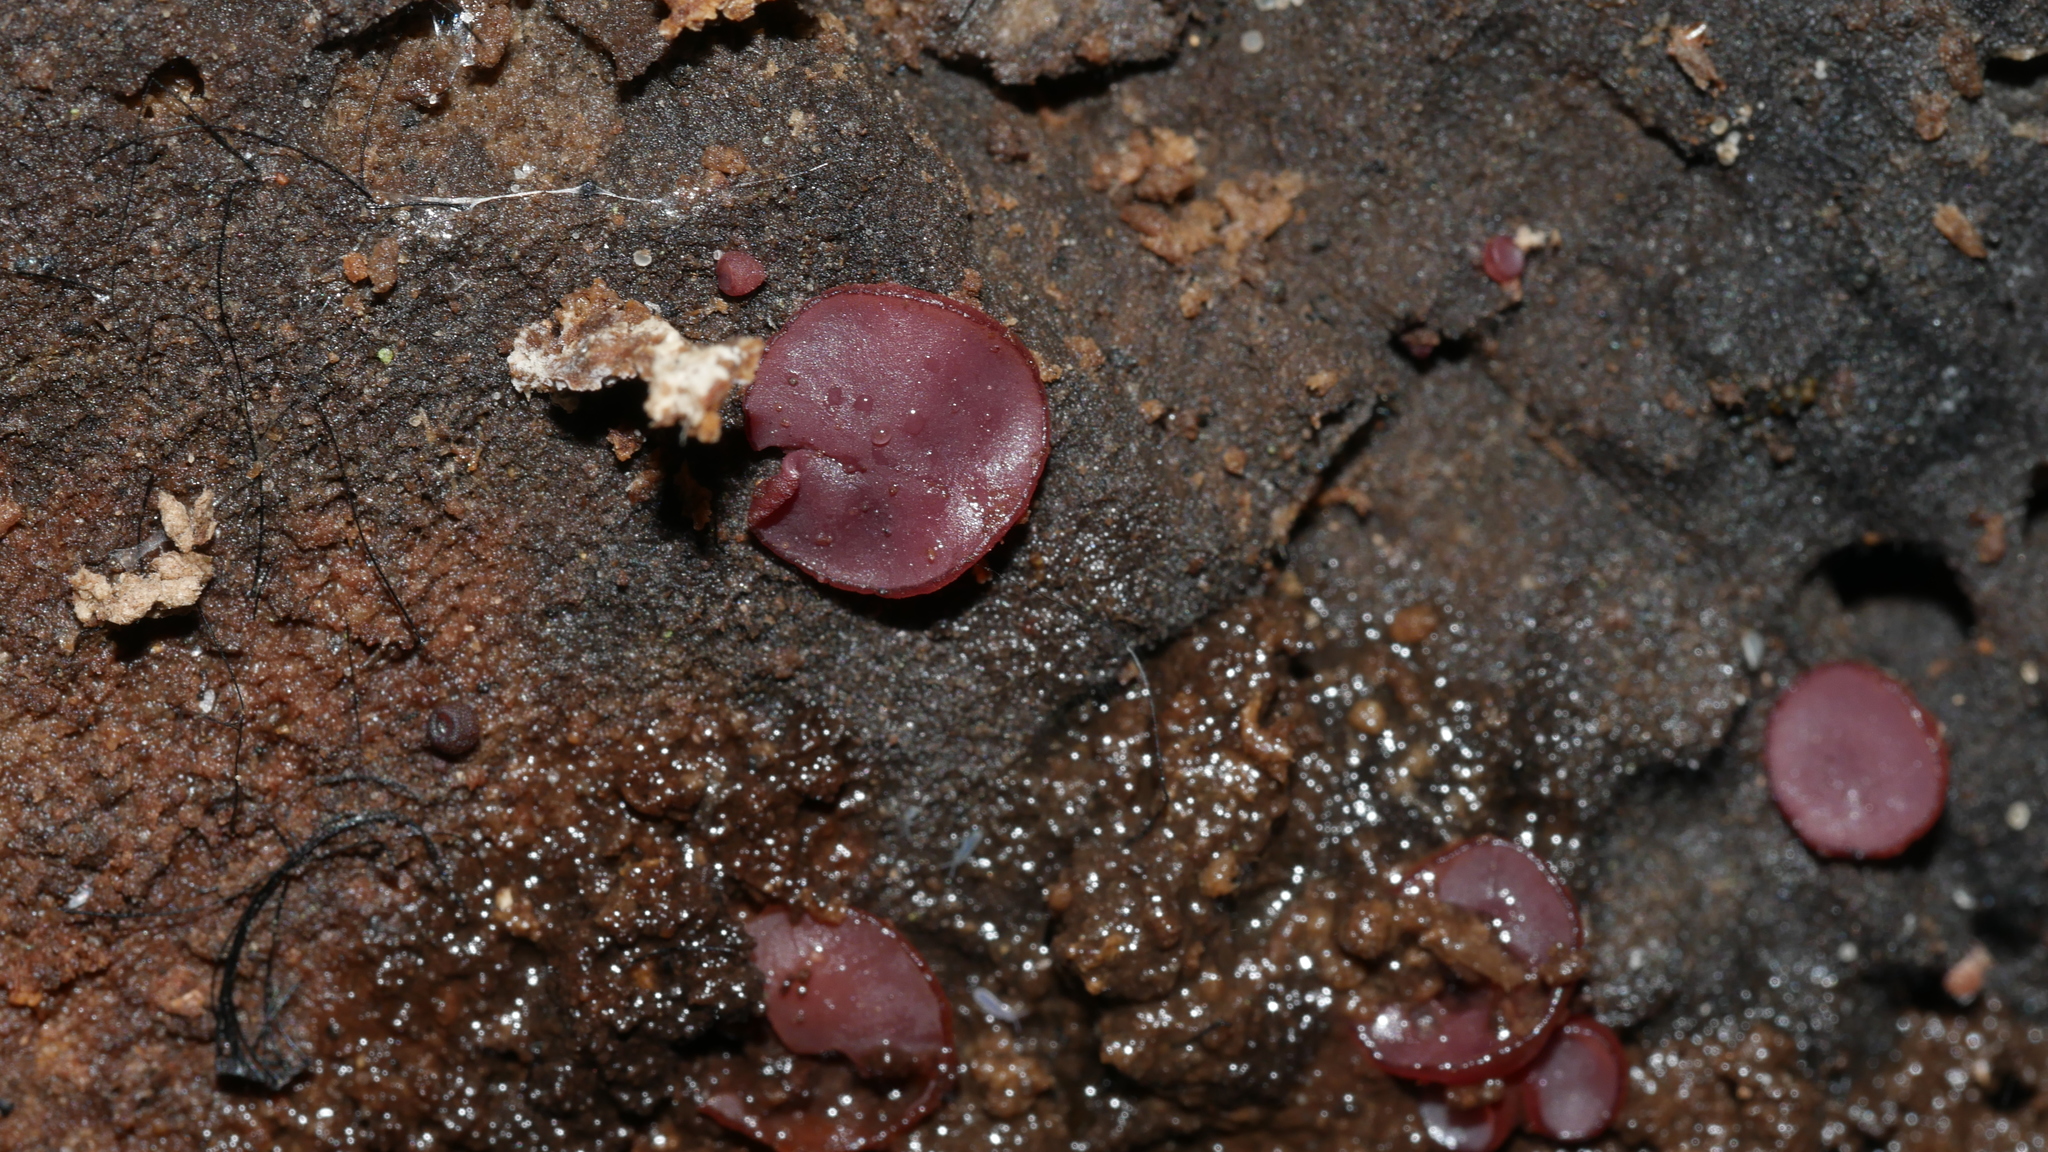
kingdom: Fungi
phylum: Ascomycota
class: Leotiomycetes
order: Helotiales
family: Gelatinodiscaceae
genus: Ascocoryne
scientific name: Ascocoryne sarcoides
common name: Purple jellydisc
